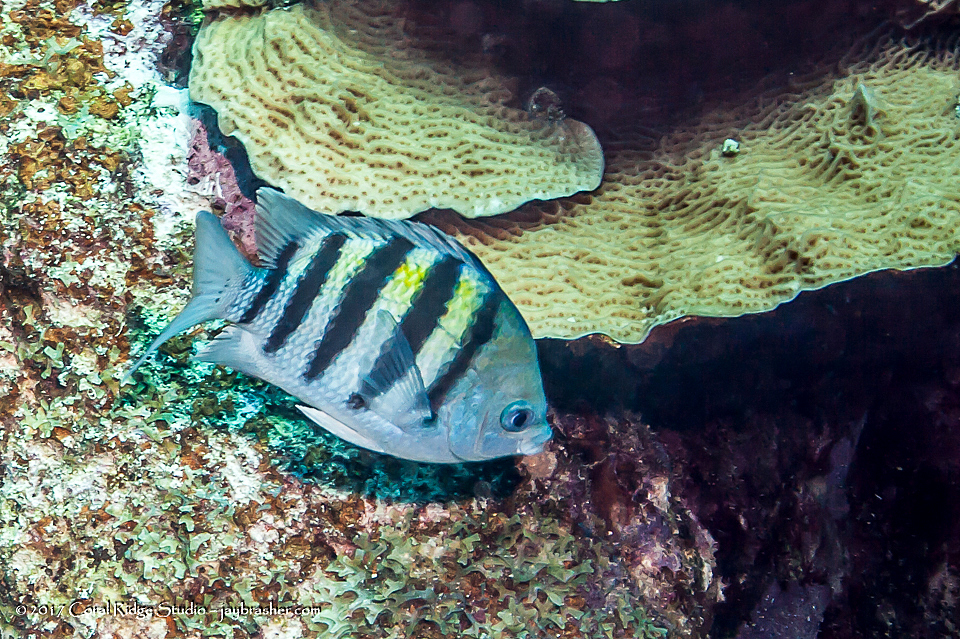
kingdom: Animalia
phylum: Chordata
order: Perciformes
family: Pomacentridae
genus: Abudefduf
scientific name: Abudefduf saxatilis
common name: Sergeant major
